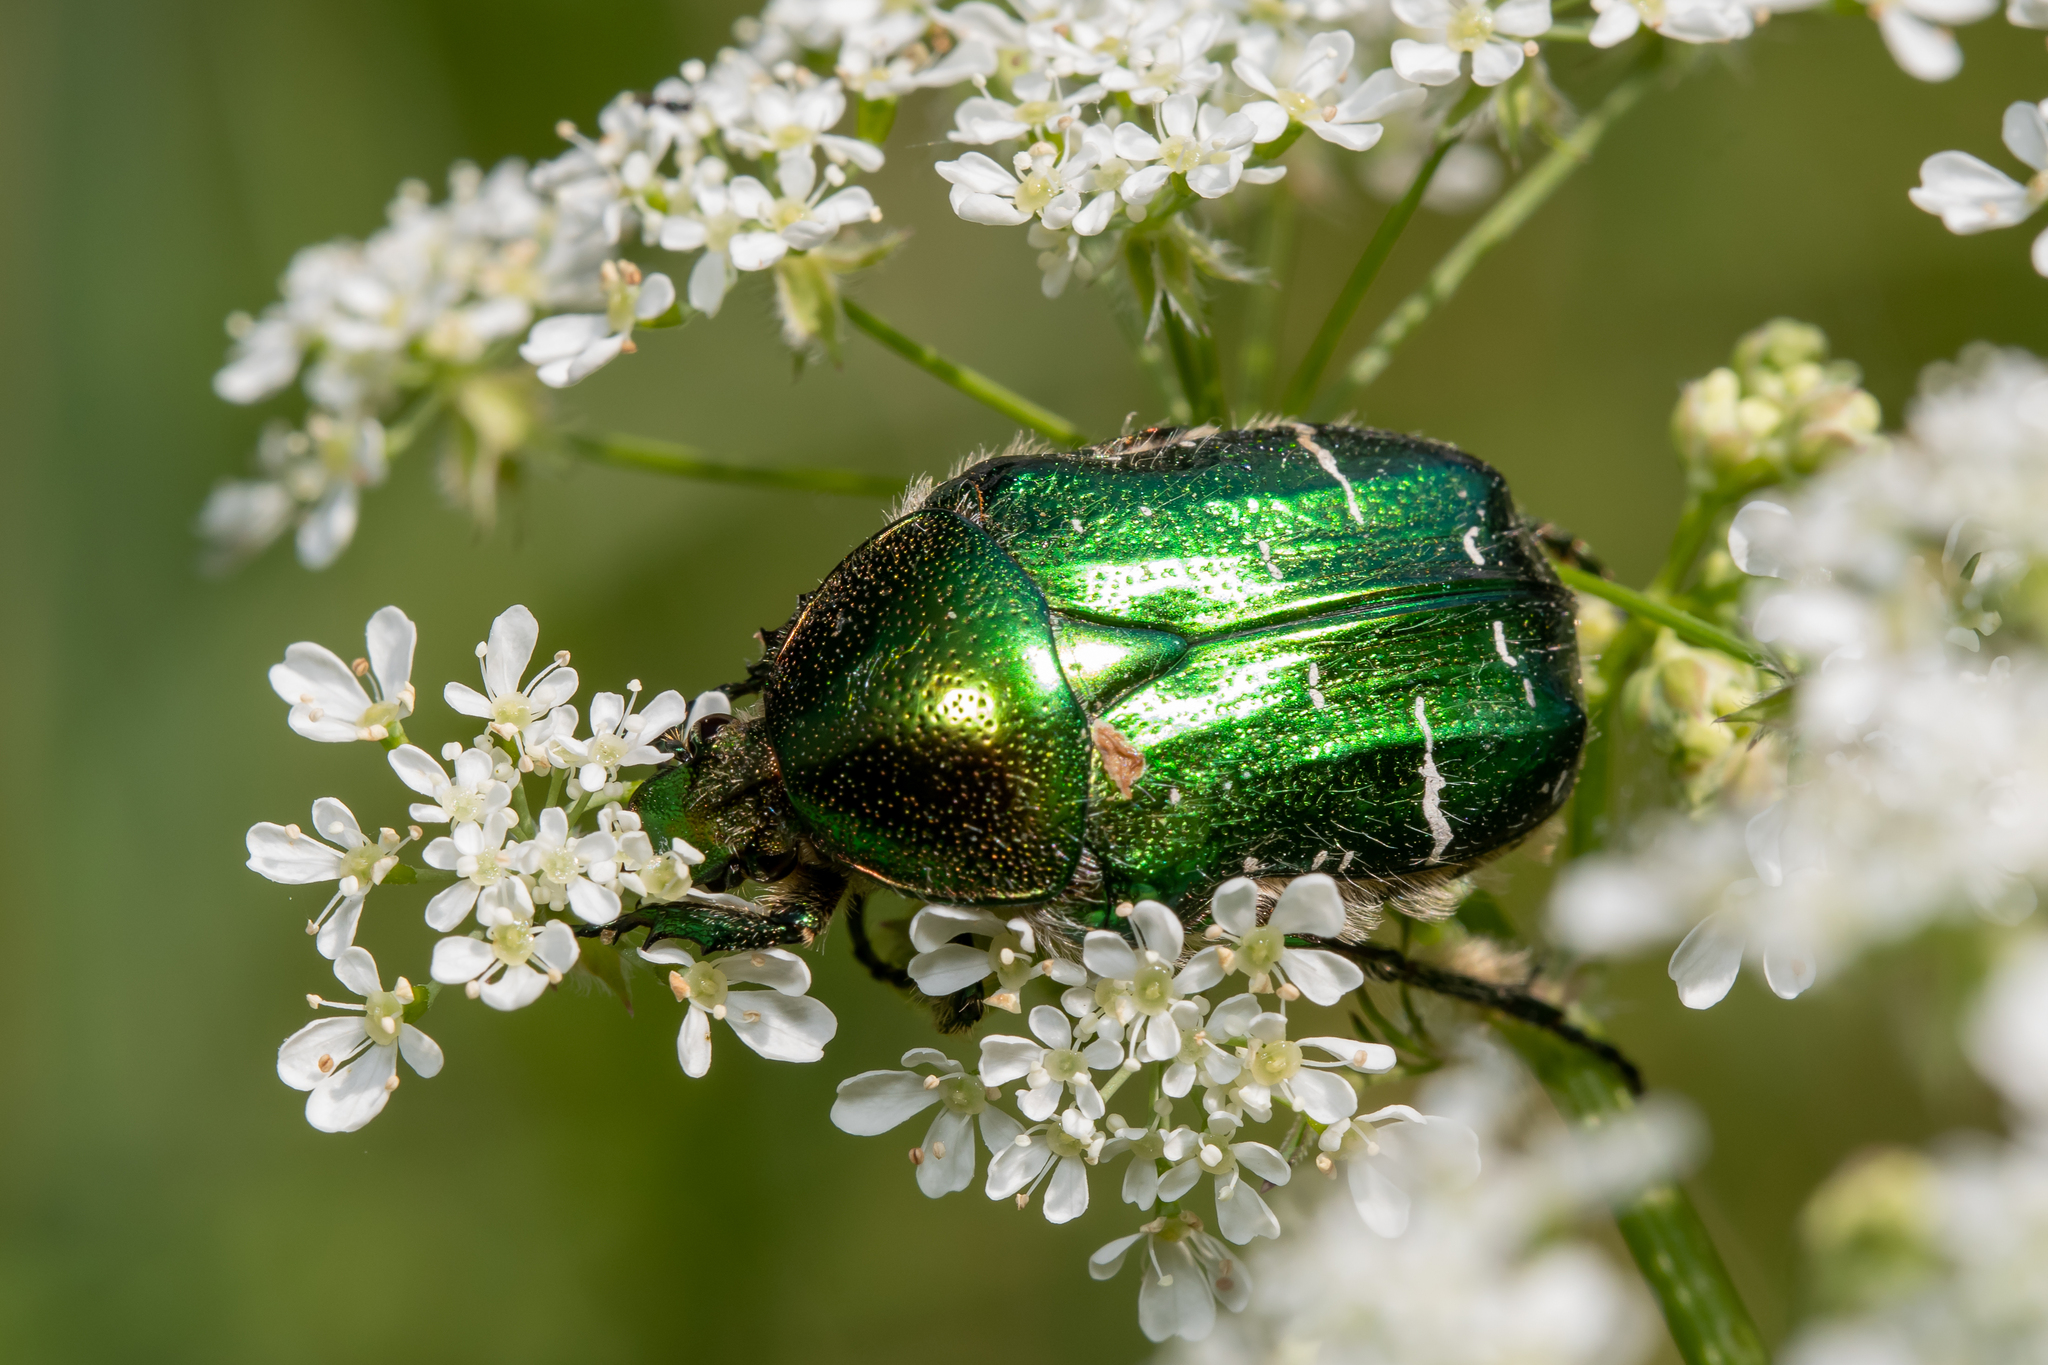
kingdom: Animalia
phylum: Arthropoda
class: Insecta
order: Coleoptera
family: Scarabaeidae
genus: Cetonia
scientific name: Cetonia aurata
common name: Rose chafer
